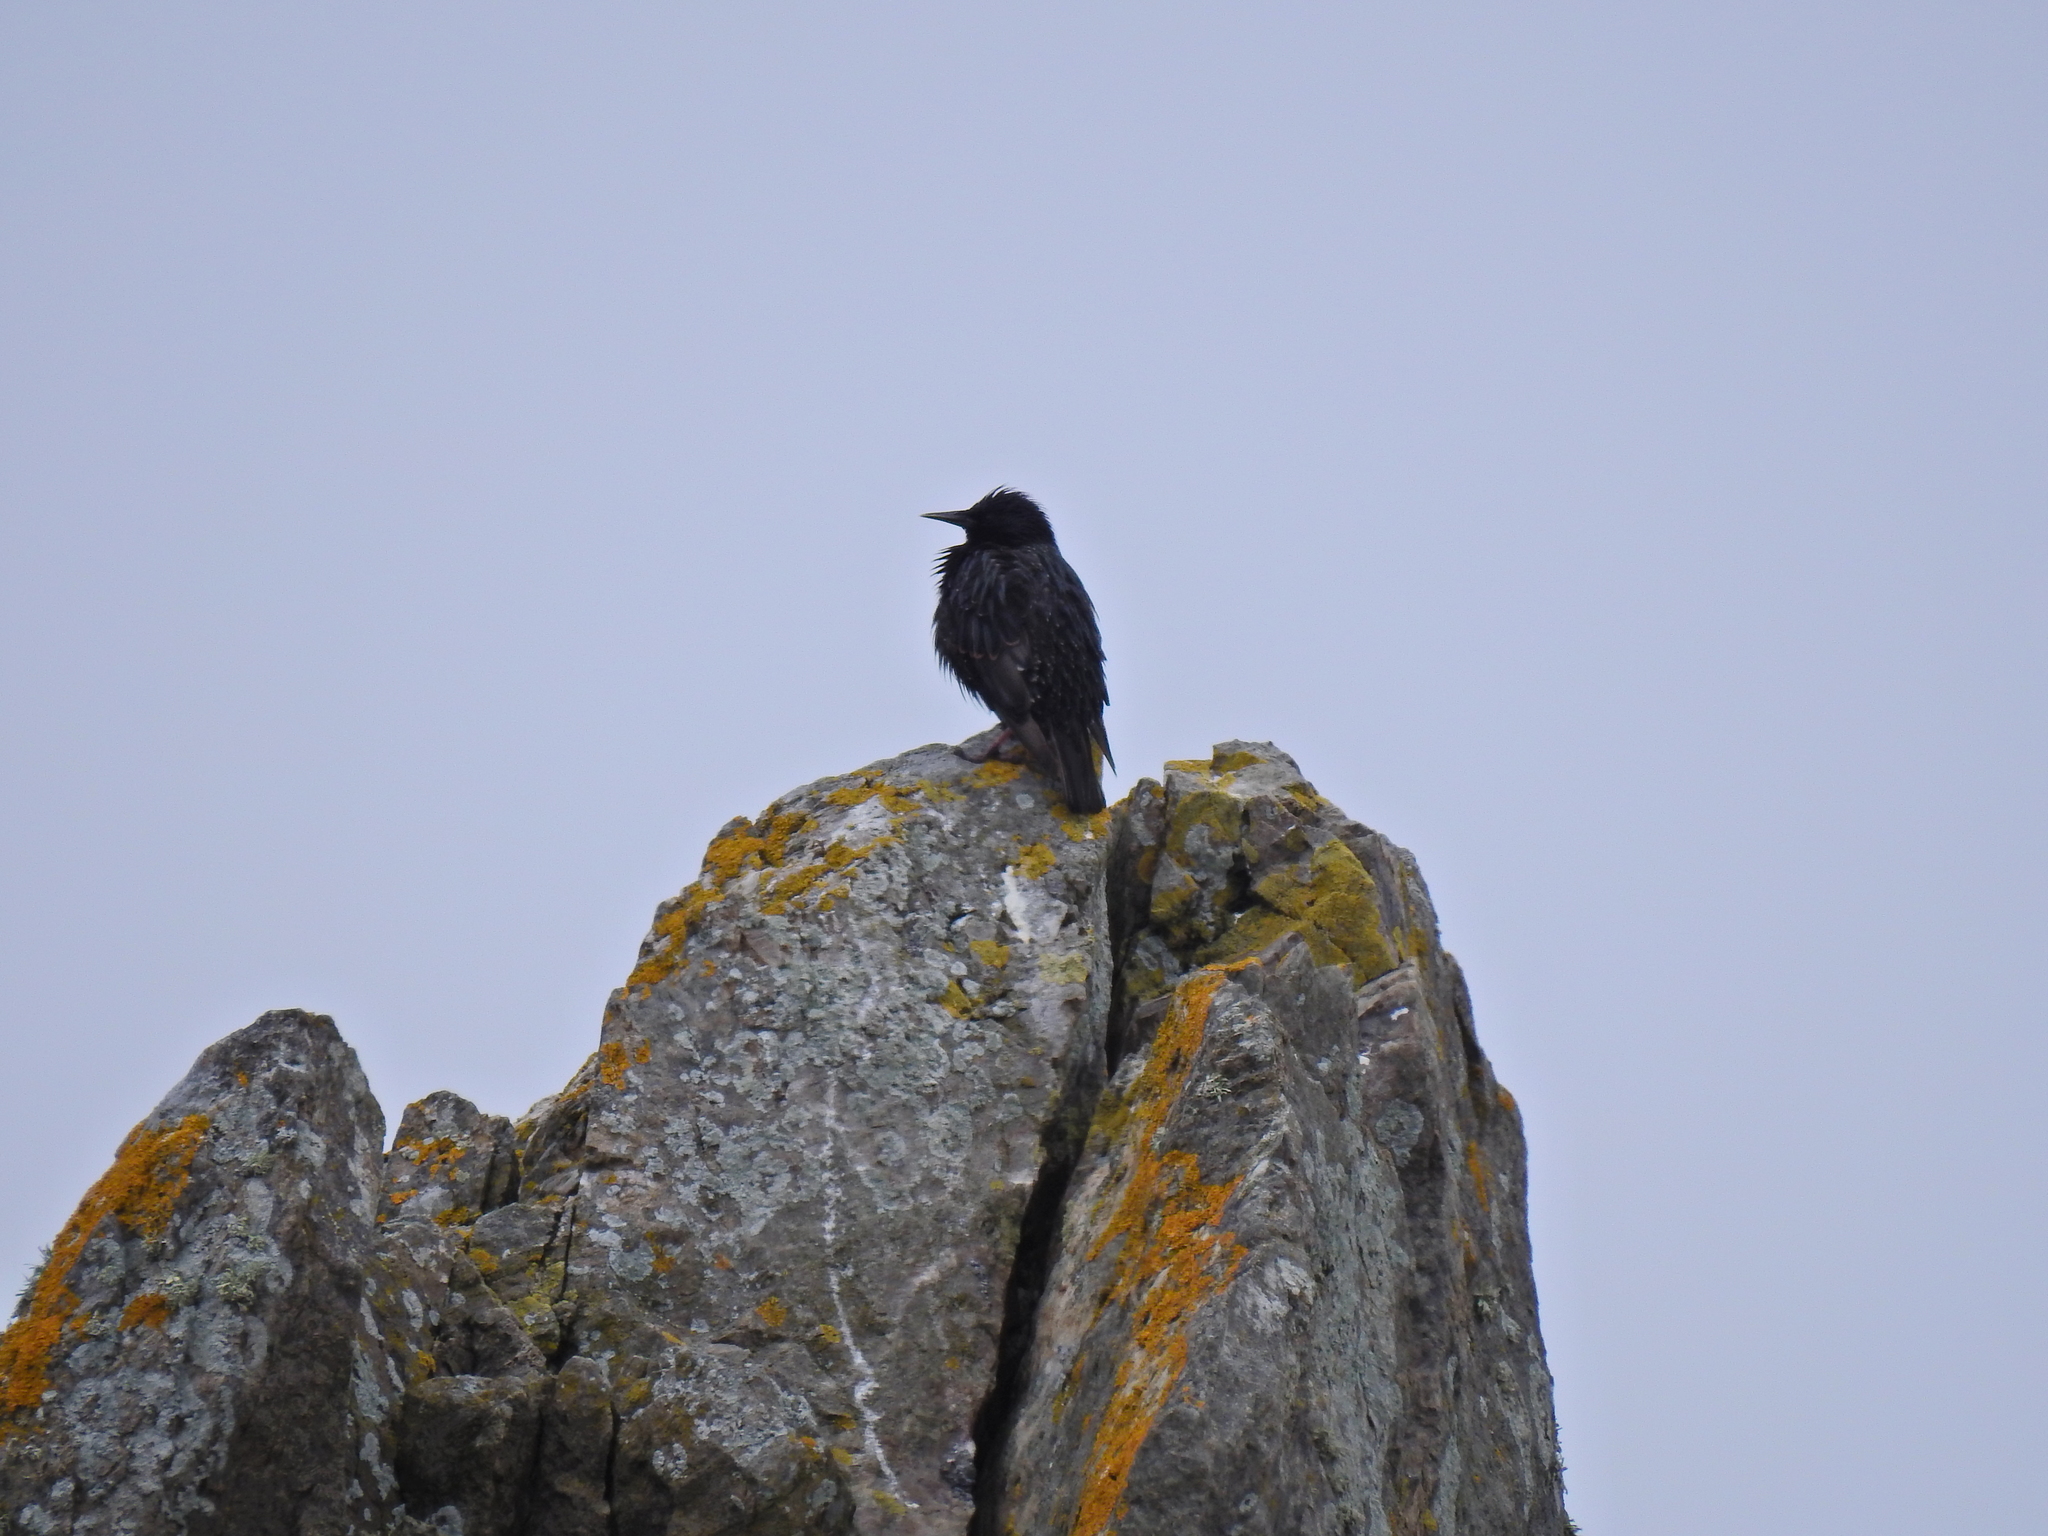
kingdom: Animalia
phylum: Chordata
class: Aves
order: Passeriformes
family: Sturnidae
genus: Sturnus
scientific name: Sturnus vulgaris
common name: Common starling
